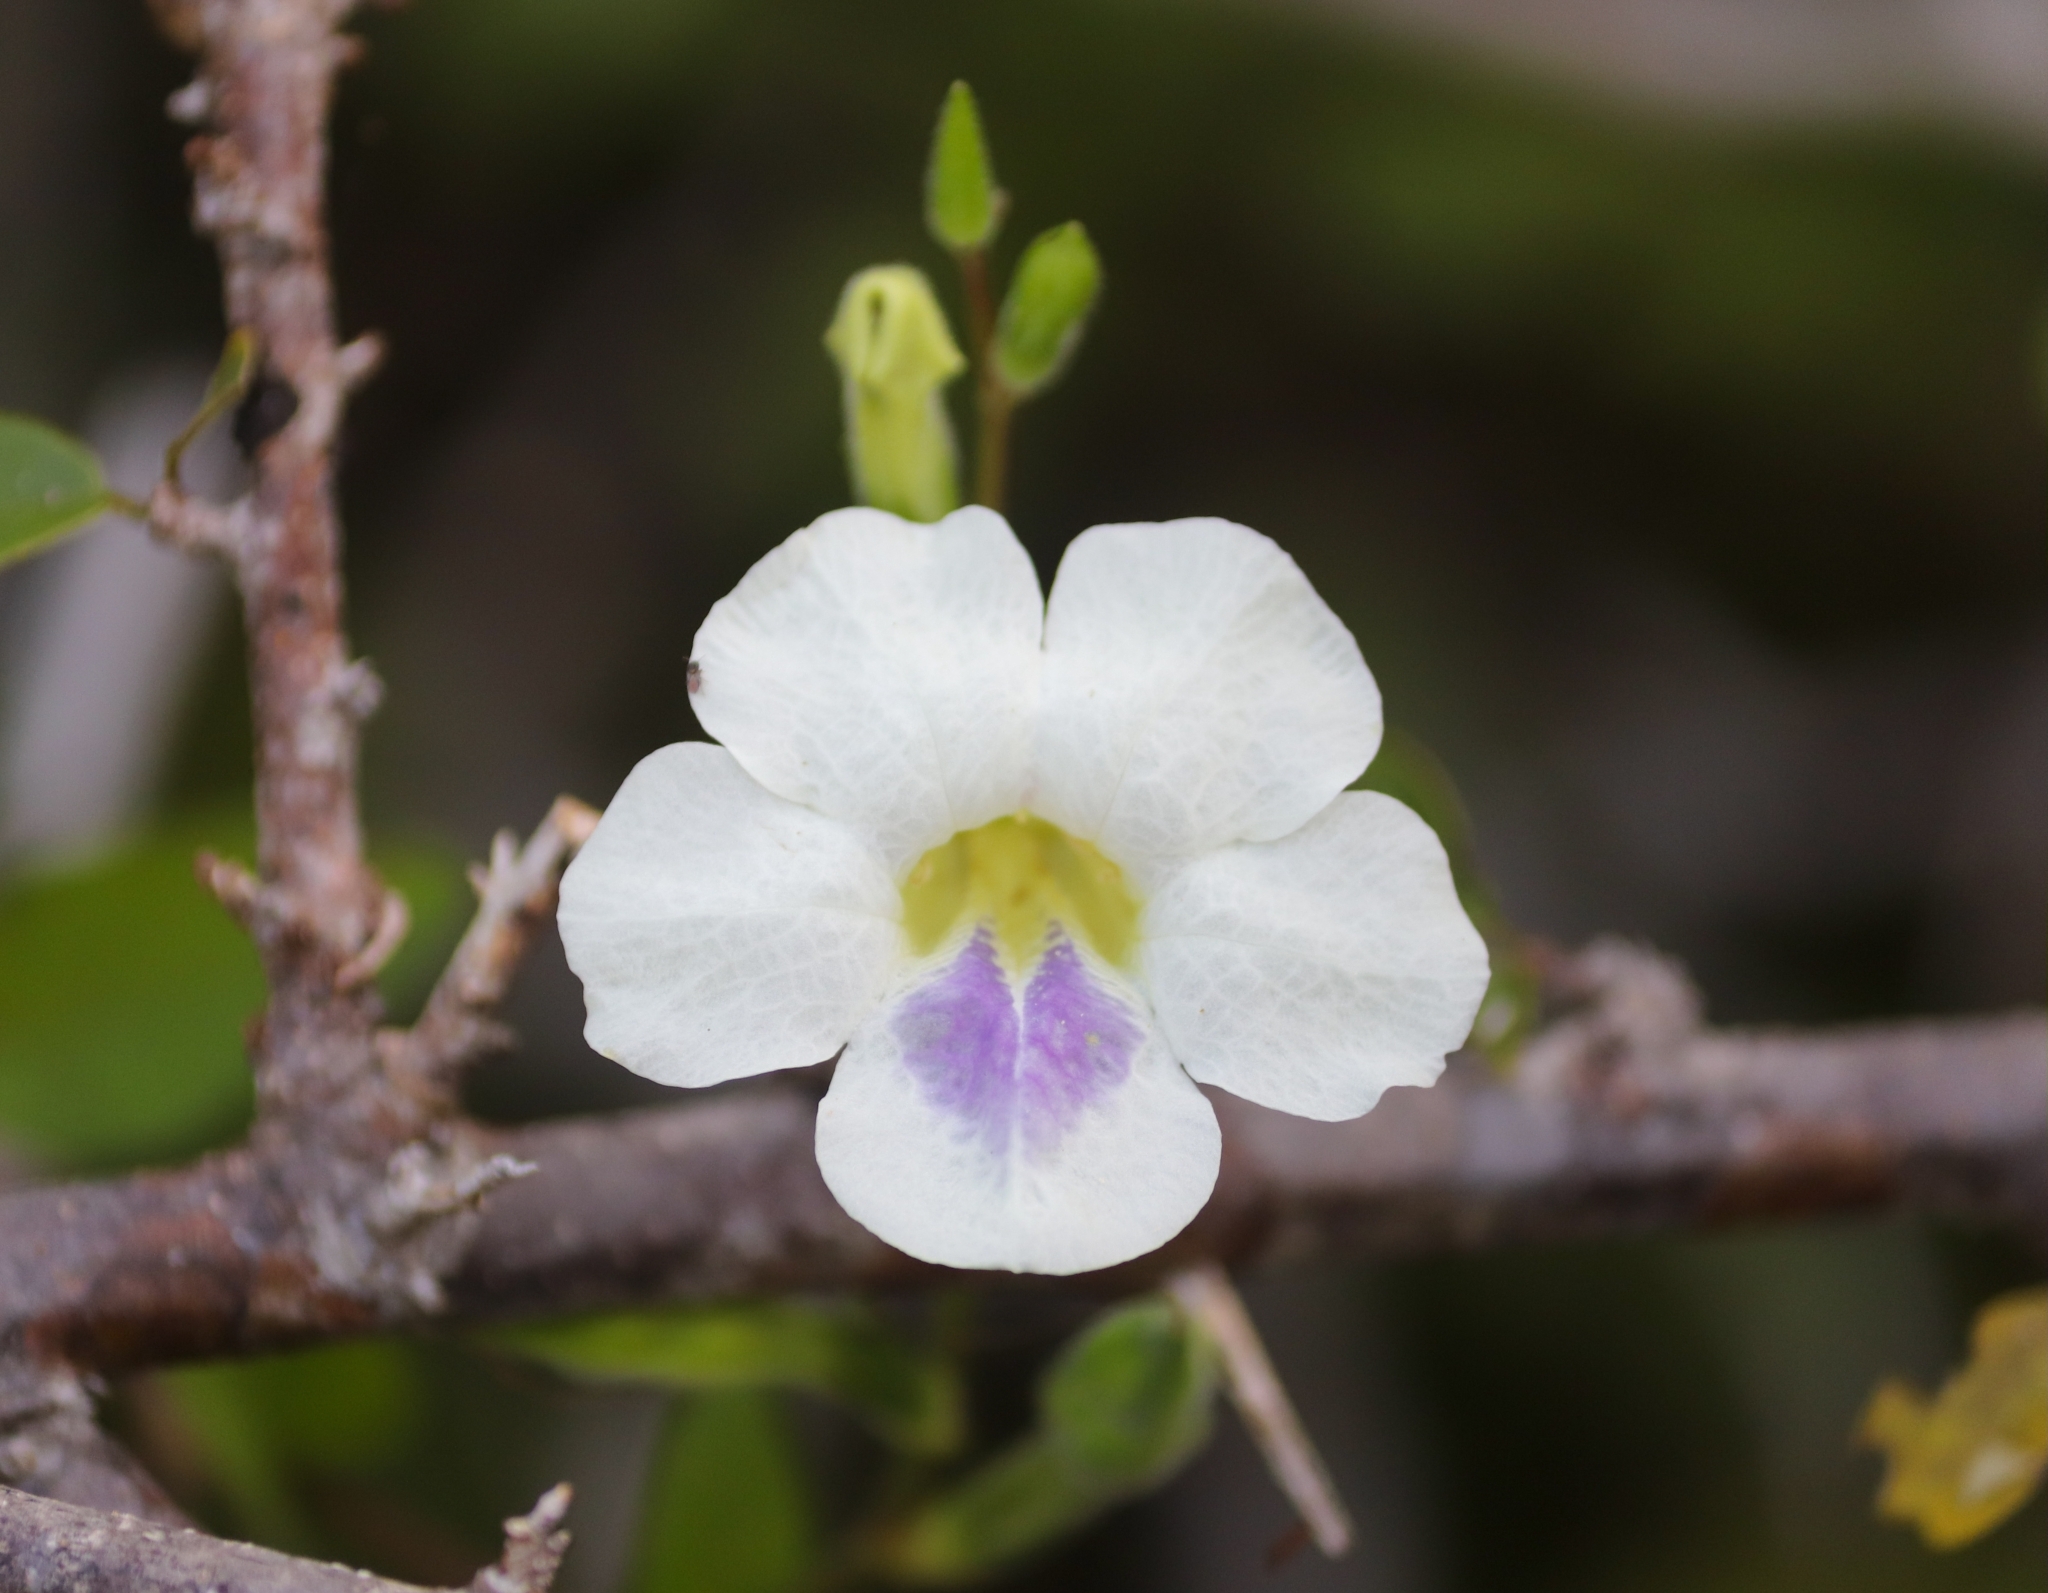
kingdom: Plantae
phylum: Tracheophyta
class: Magnoliopsida
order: Lamiales
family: Acanthaceae
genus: Asystasia
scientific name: Asystasia gangetica
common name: Chinese violet
